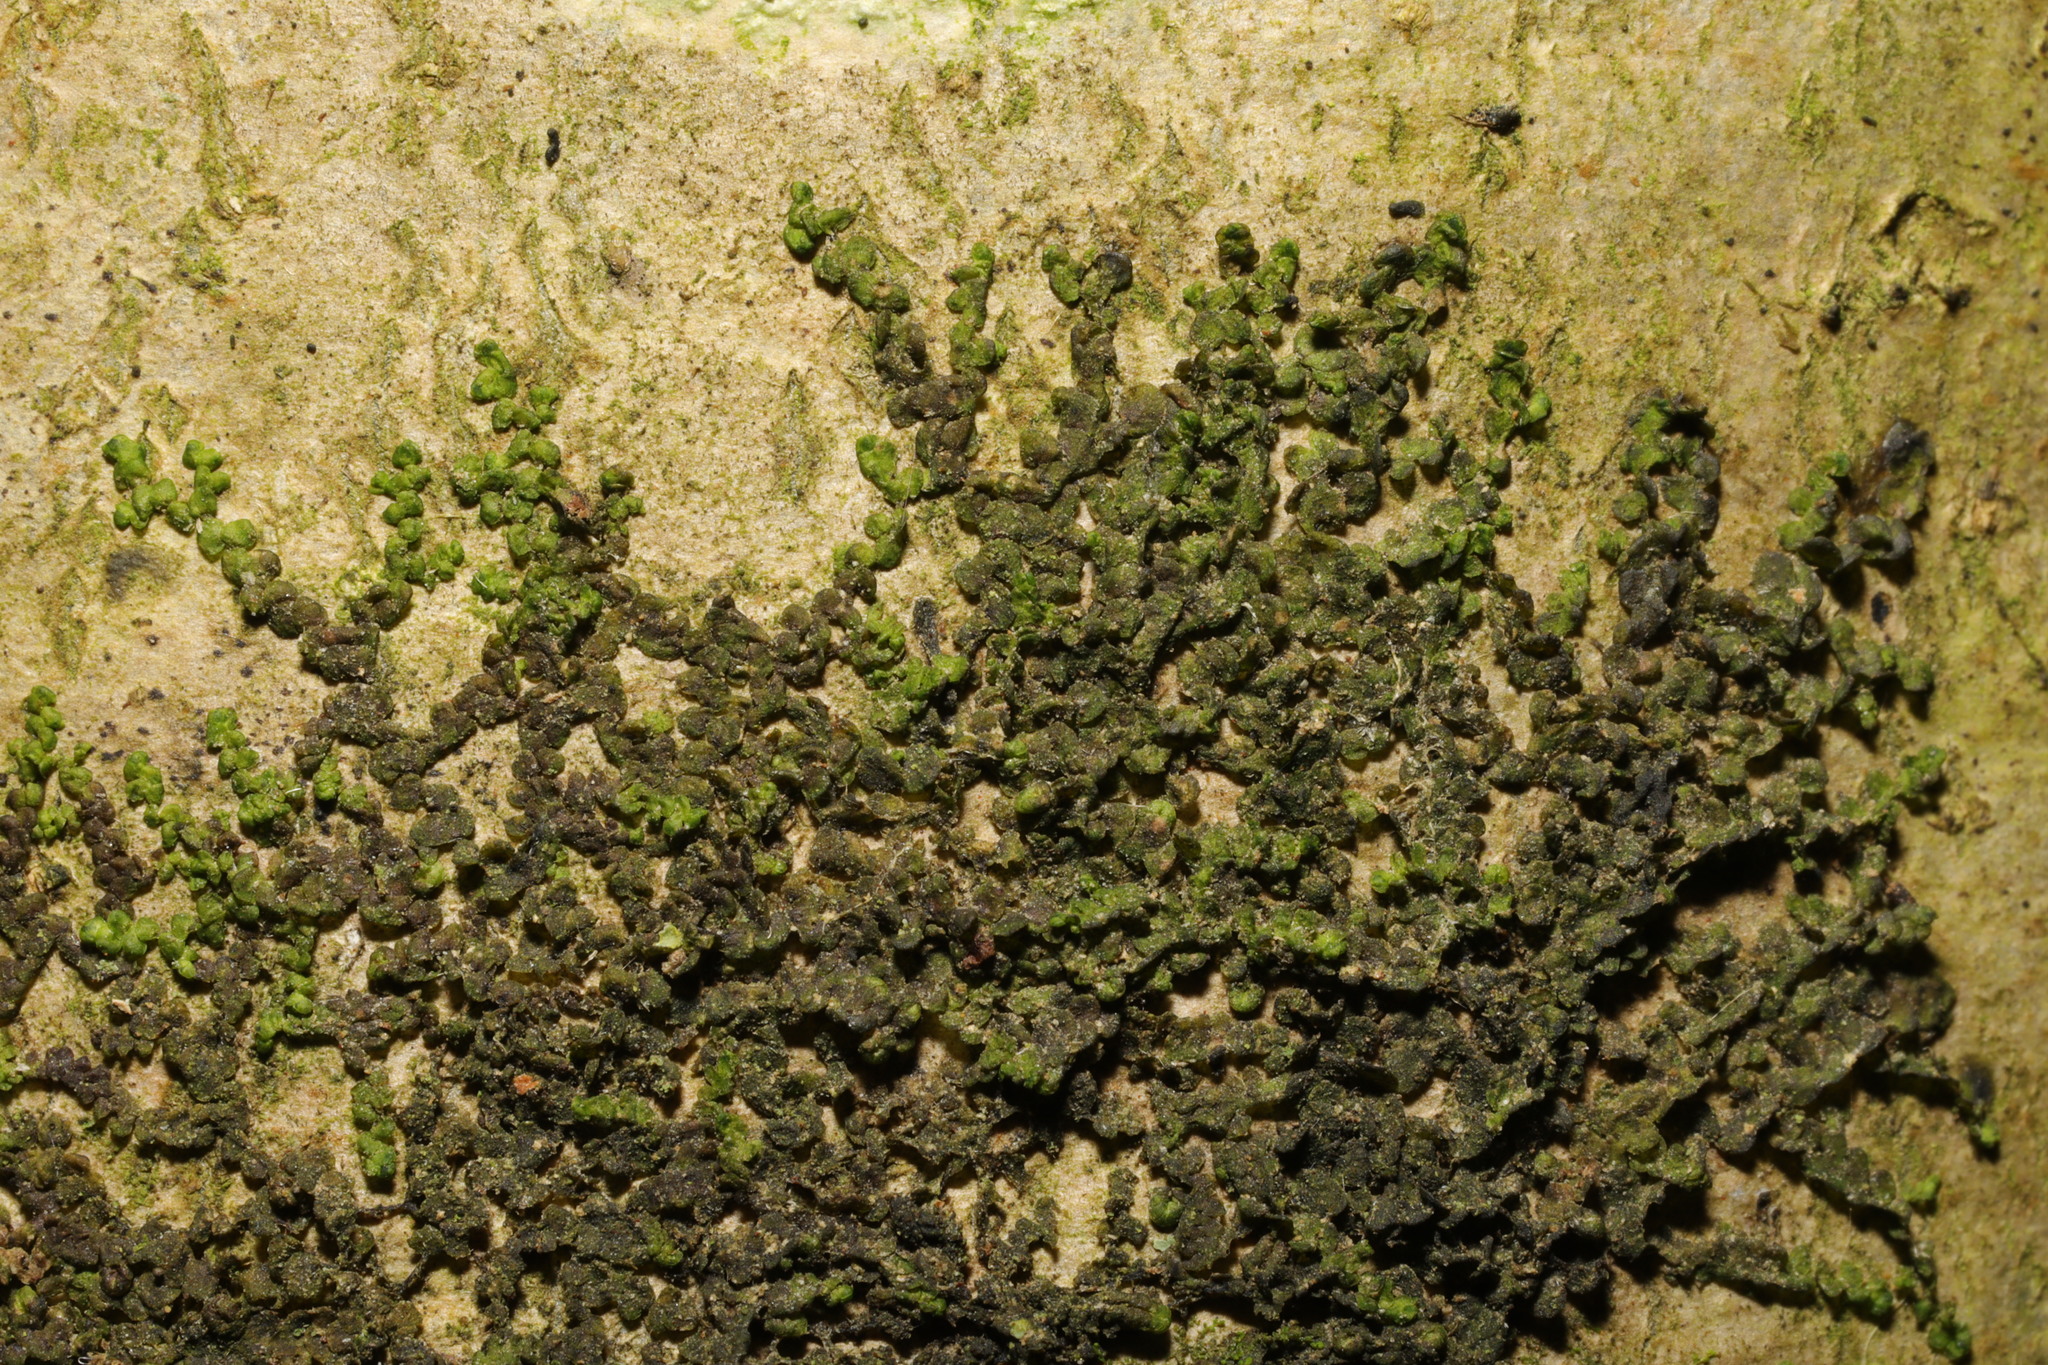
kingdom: Plantae
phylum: Marchantiophyta
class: Jungermanniopsida
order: Porellales
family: Frullaniaceae
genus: Frullania
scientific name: Frullania dilatata
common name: Dilated scalewort
